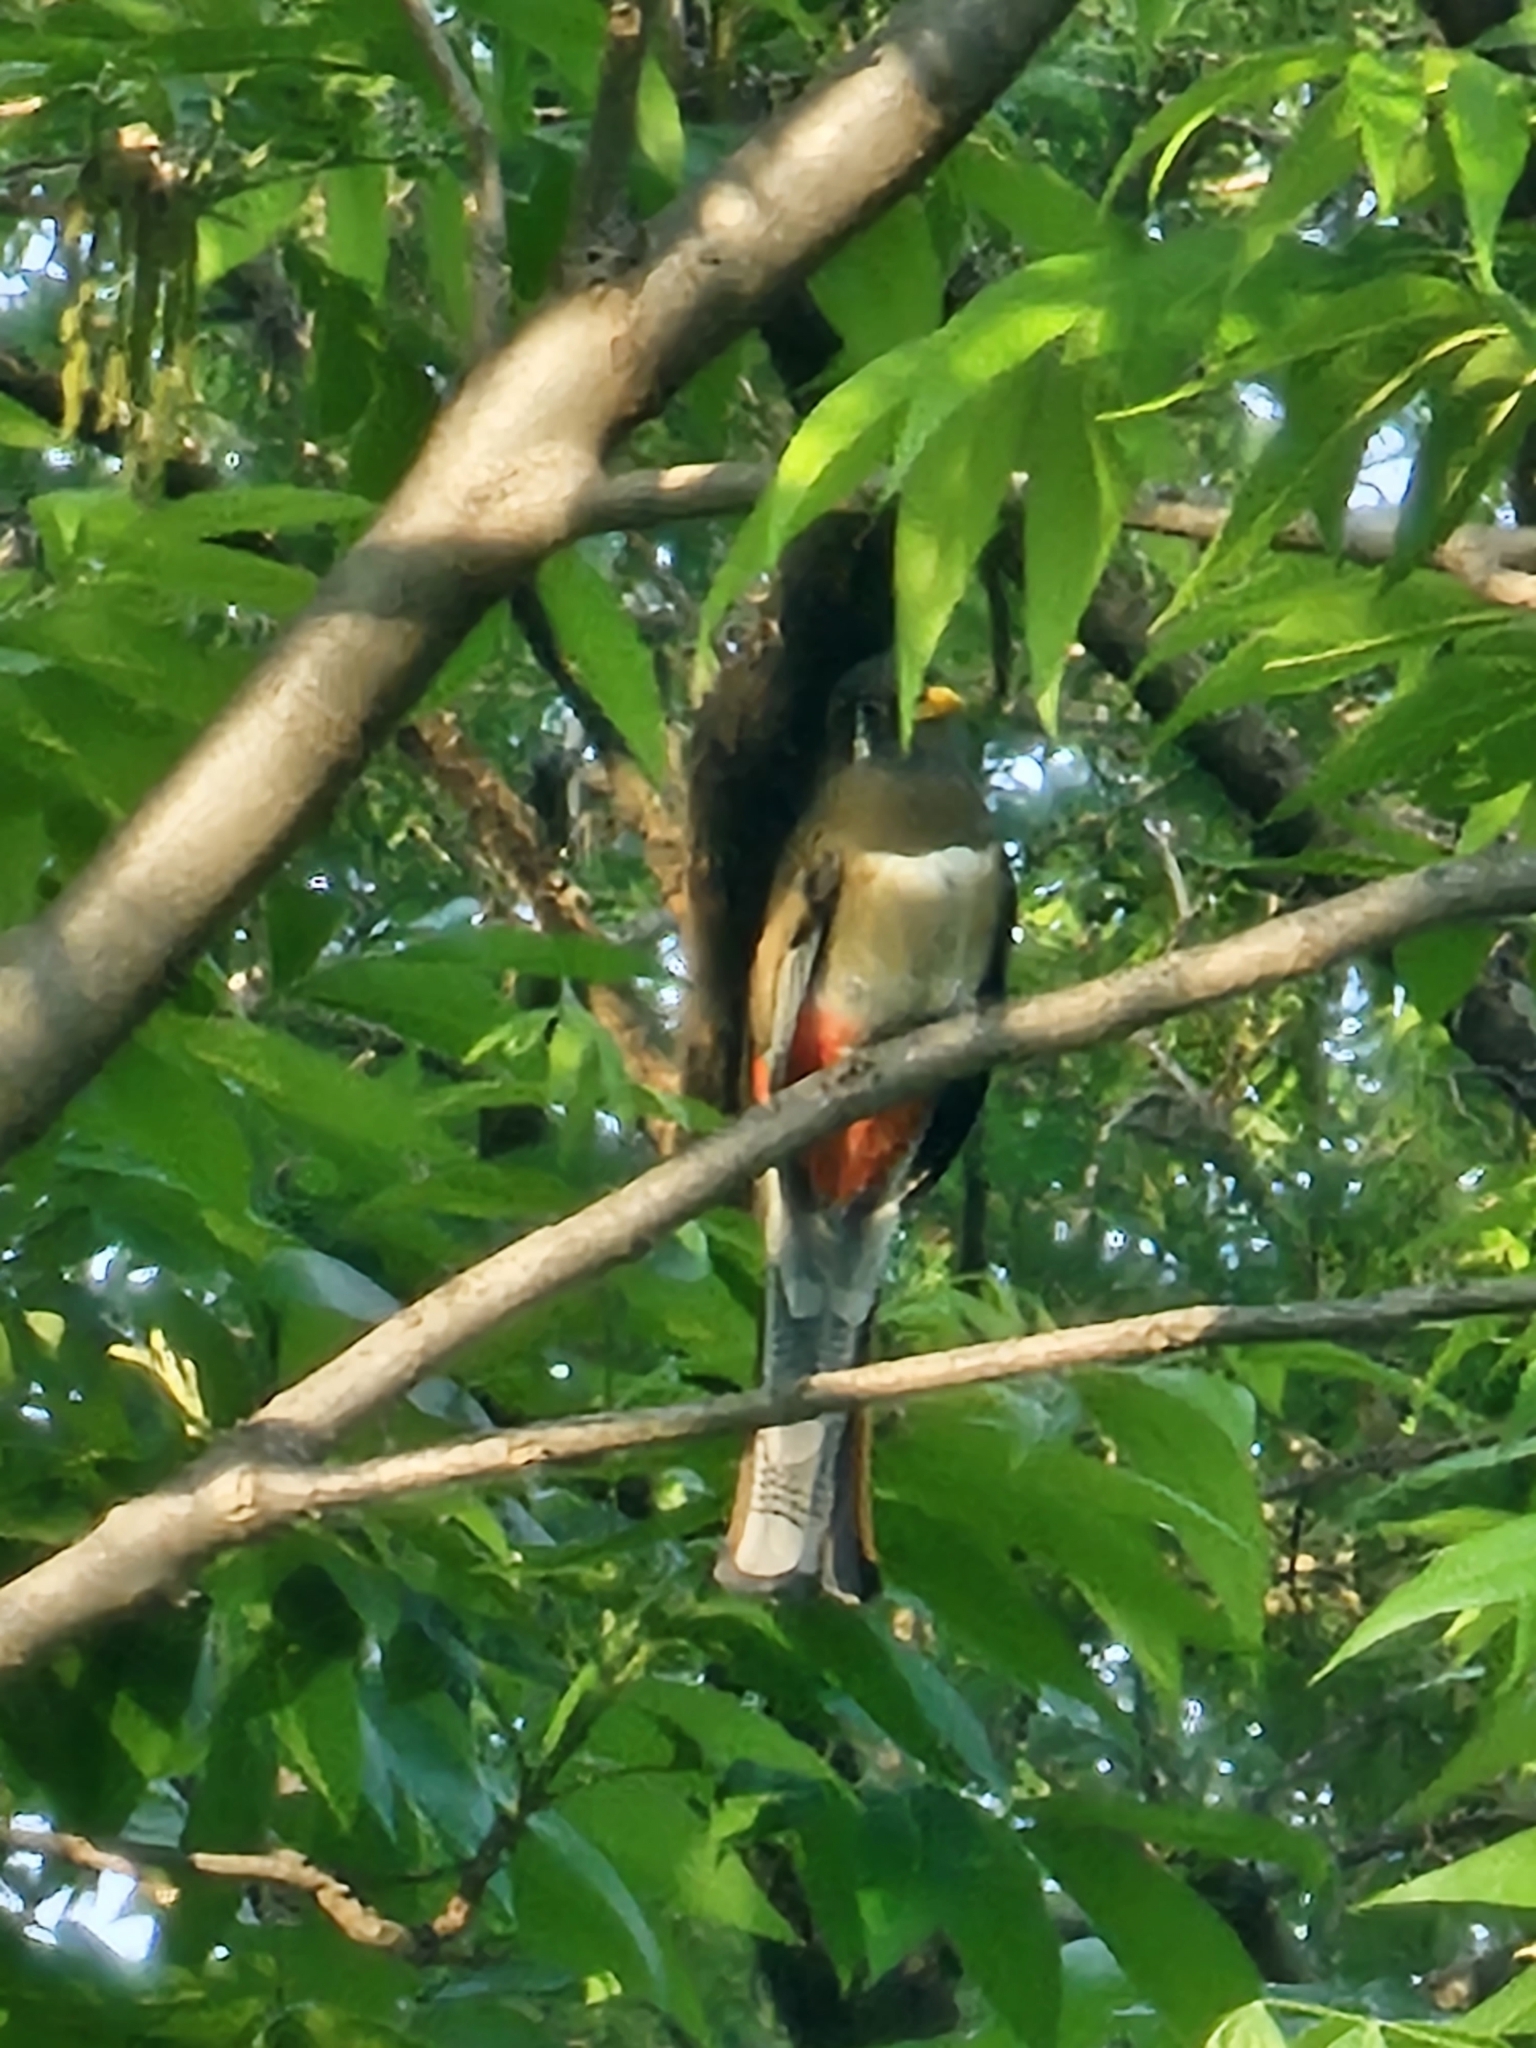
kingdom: Animalia
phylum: Chordata
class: Aves
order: Trogoniformes
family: Trogonidae
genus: Trogon
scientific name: Trogon elegans
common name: Elegant trogon
